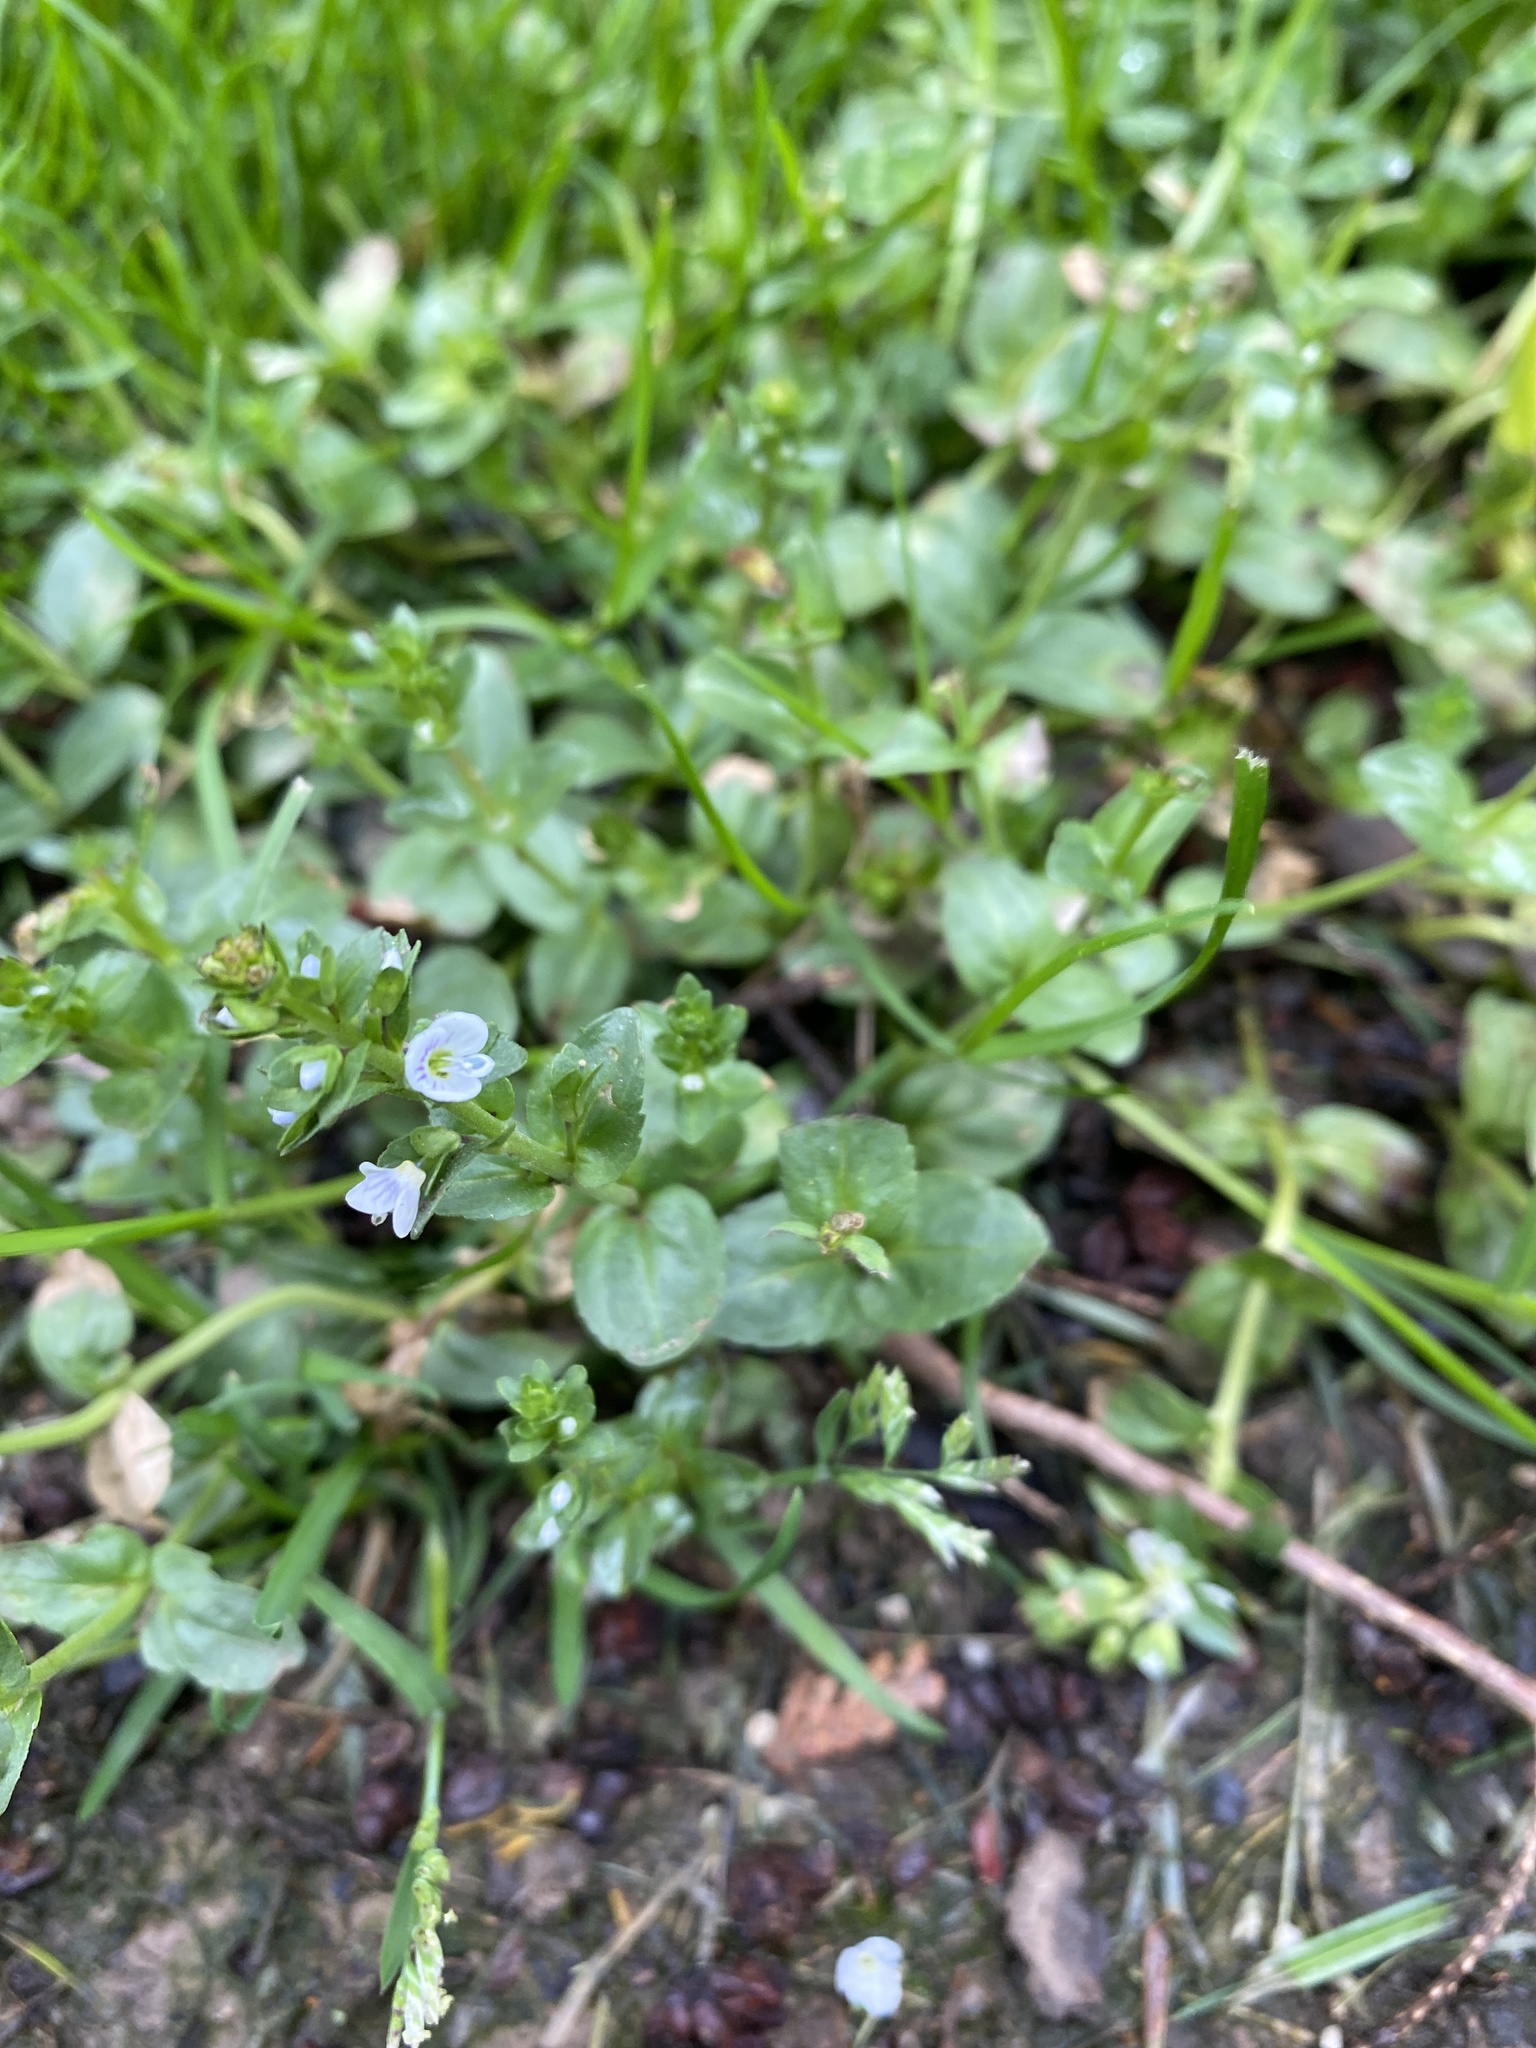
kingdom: Plantae
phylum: Tracheophyta
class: Magnoliopsida
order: Lamiales
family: Plantaginaceae
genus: Veronica
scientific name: Veronica serpyllifolia
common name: Thyme-leaved speedwell
